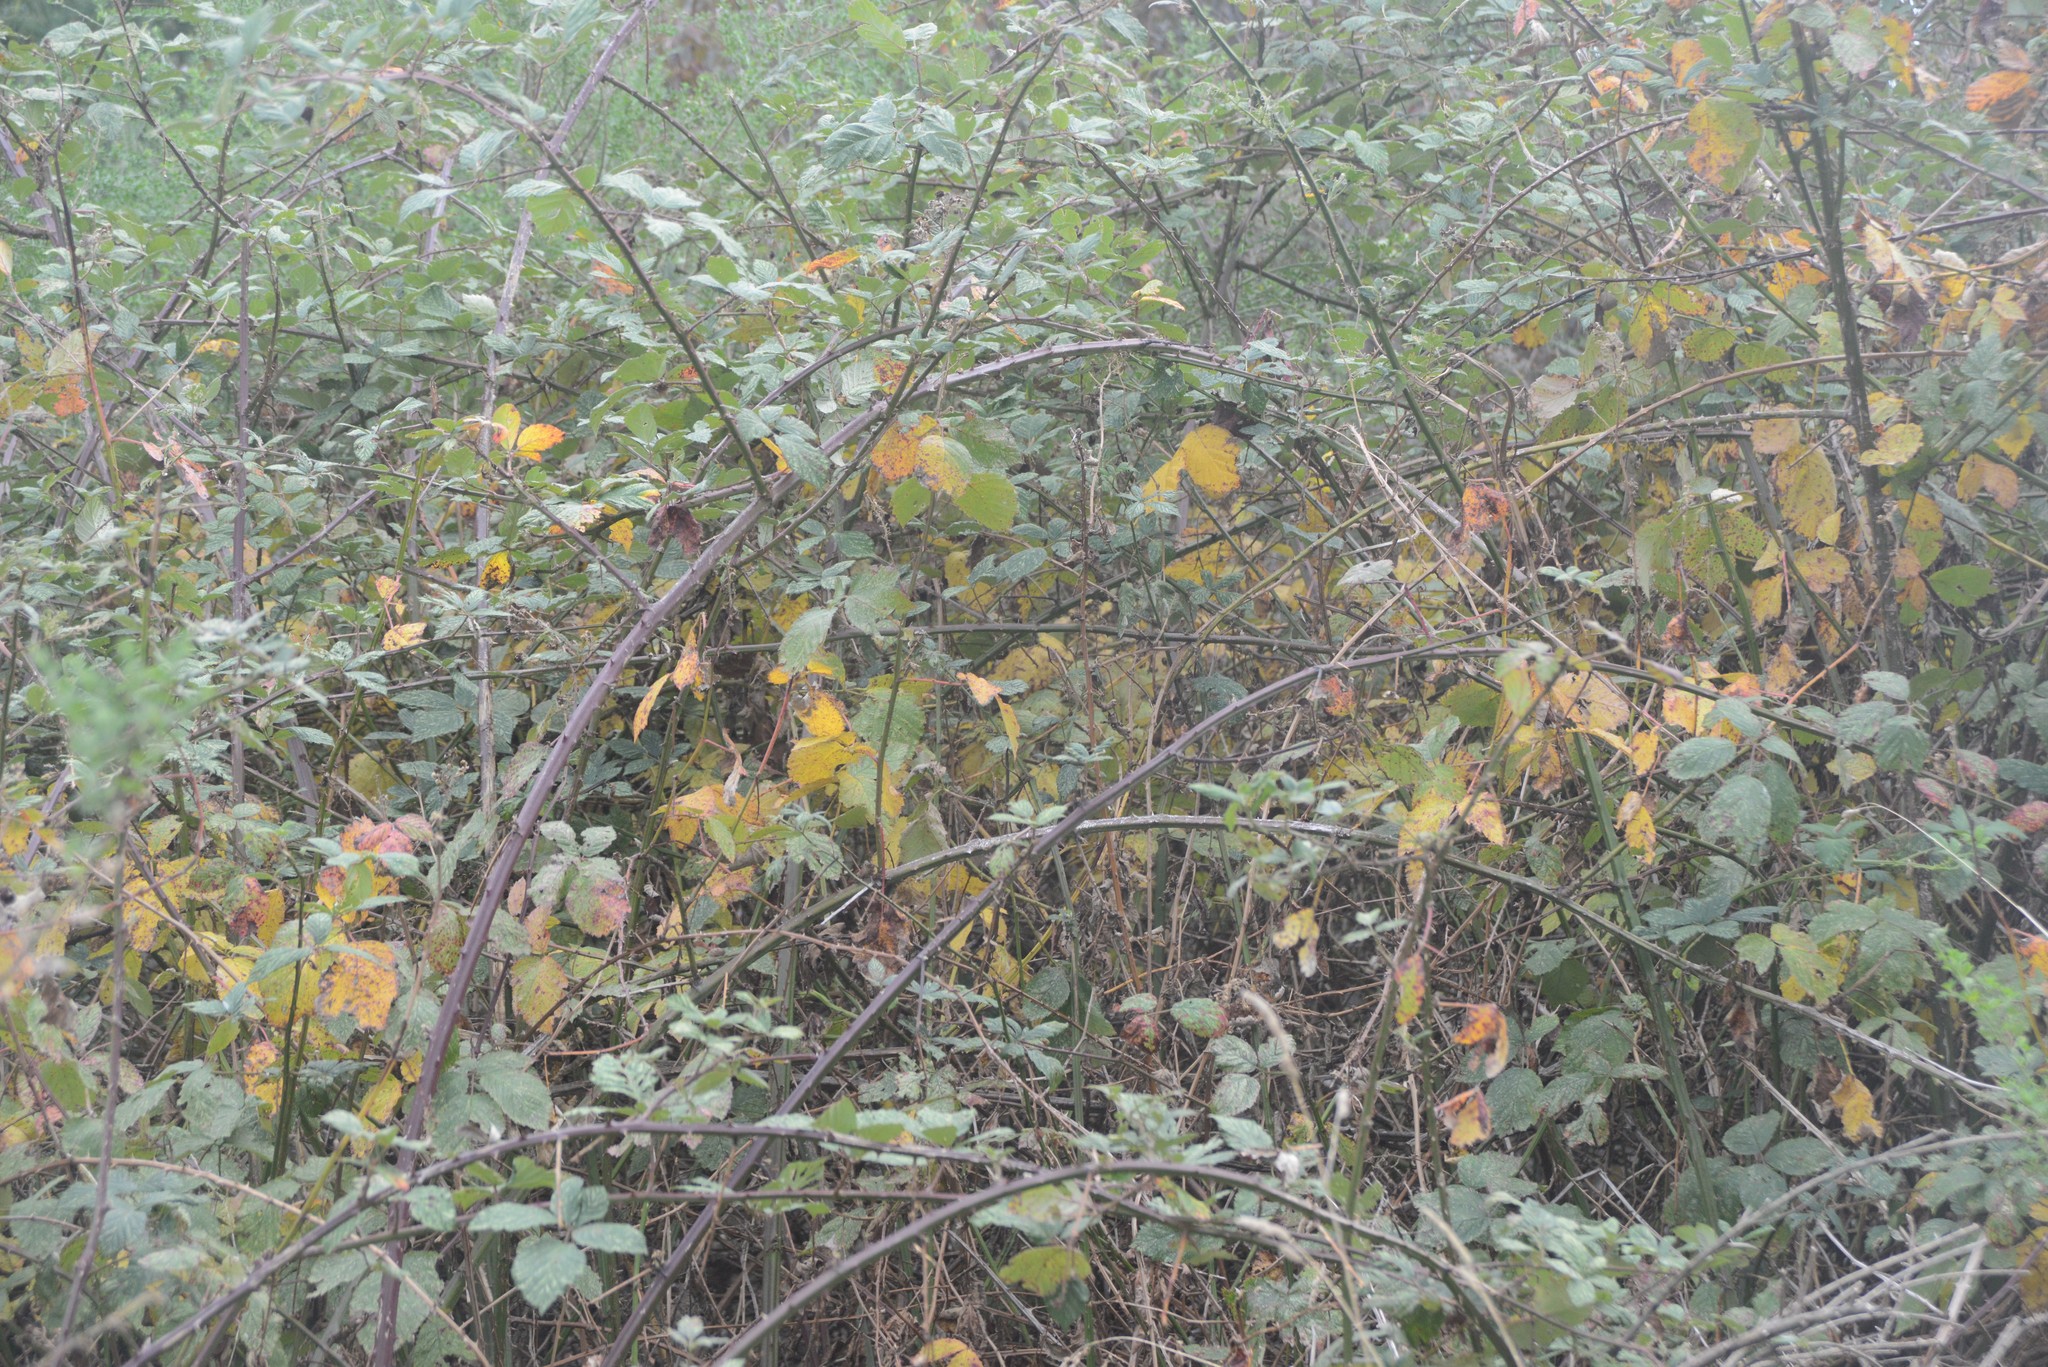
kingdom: Plantae
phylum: Tracheophyta
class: Magnoliopsida
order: Rosales
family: Rosaceae
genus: Rubus
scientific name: Rubus
